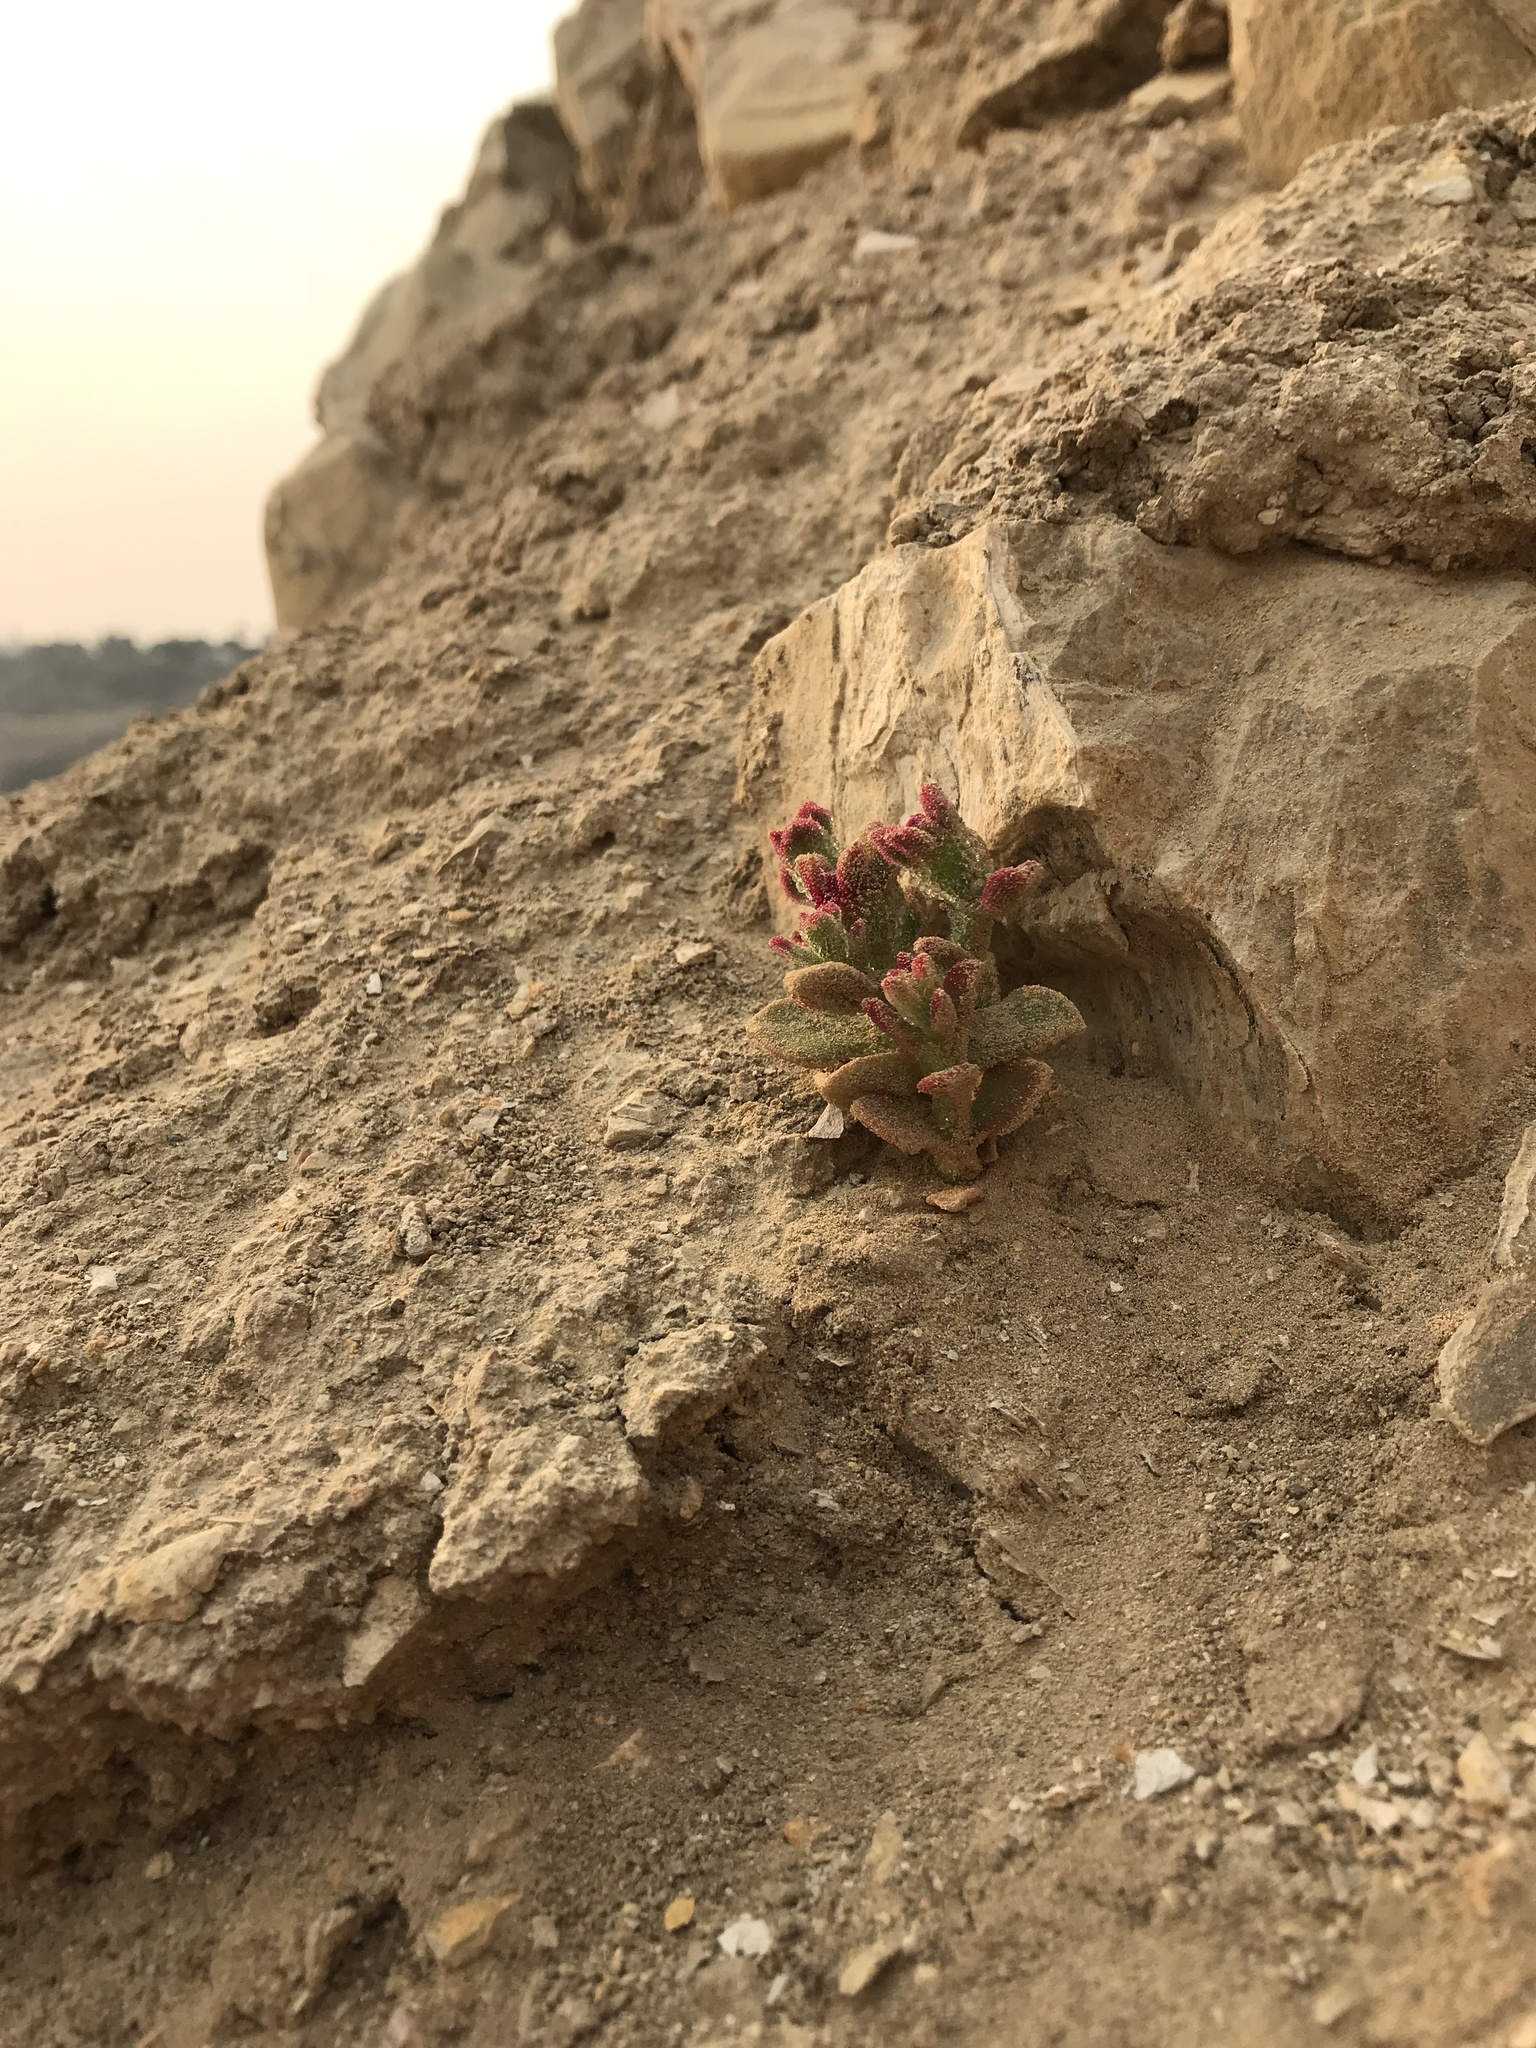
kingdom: Plantae
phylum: Tracheophyta
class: Magnoliopsida
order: Caryophyllales
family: Aizoaceae
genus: Mesembryanthemum
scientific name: Mesembryanthemum crystallinum
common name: Common iceplant
